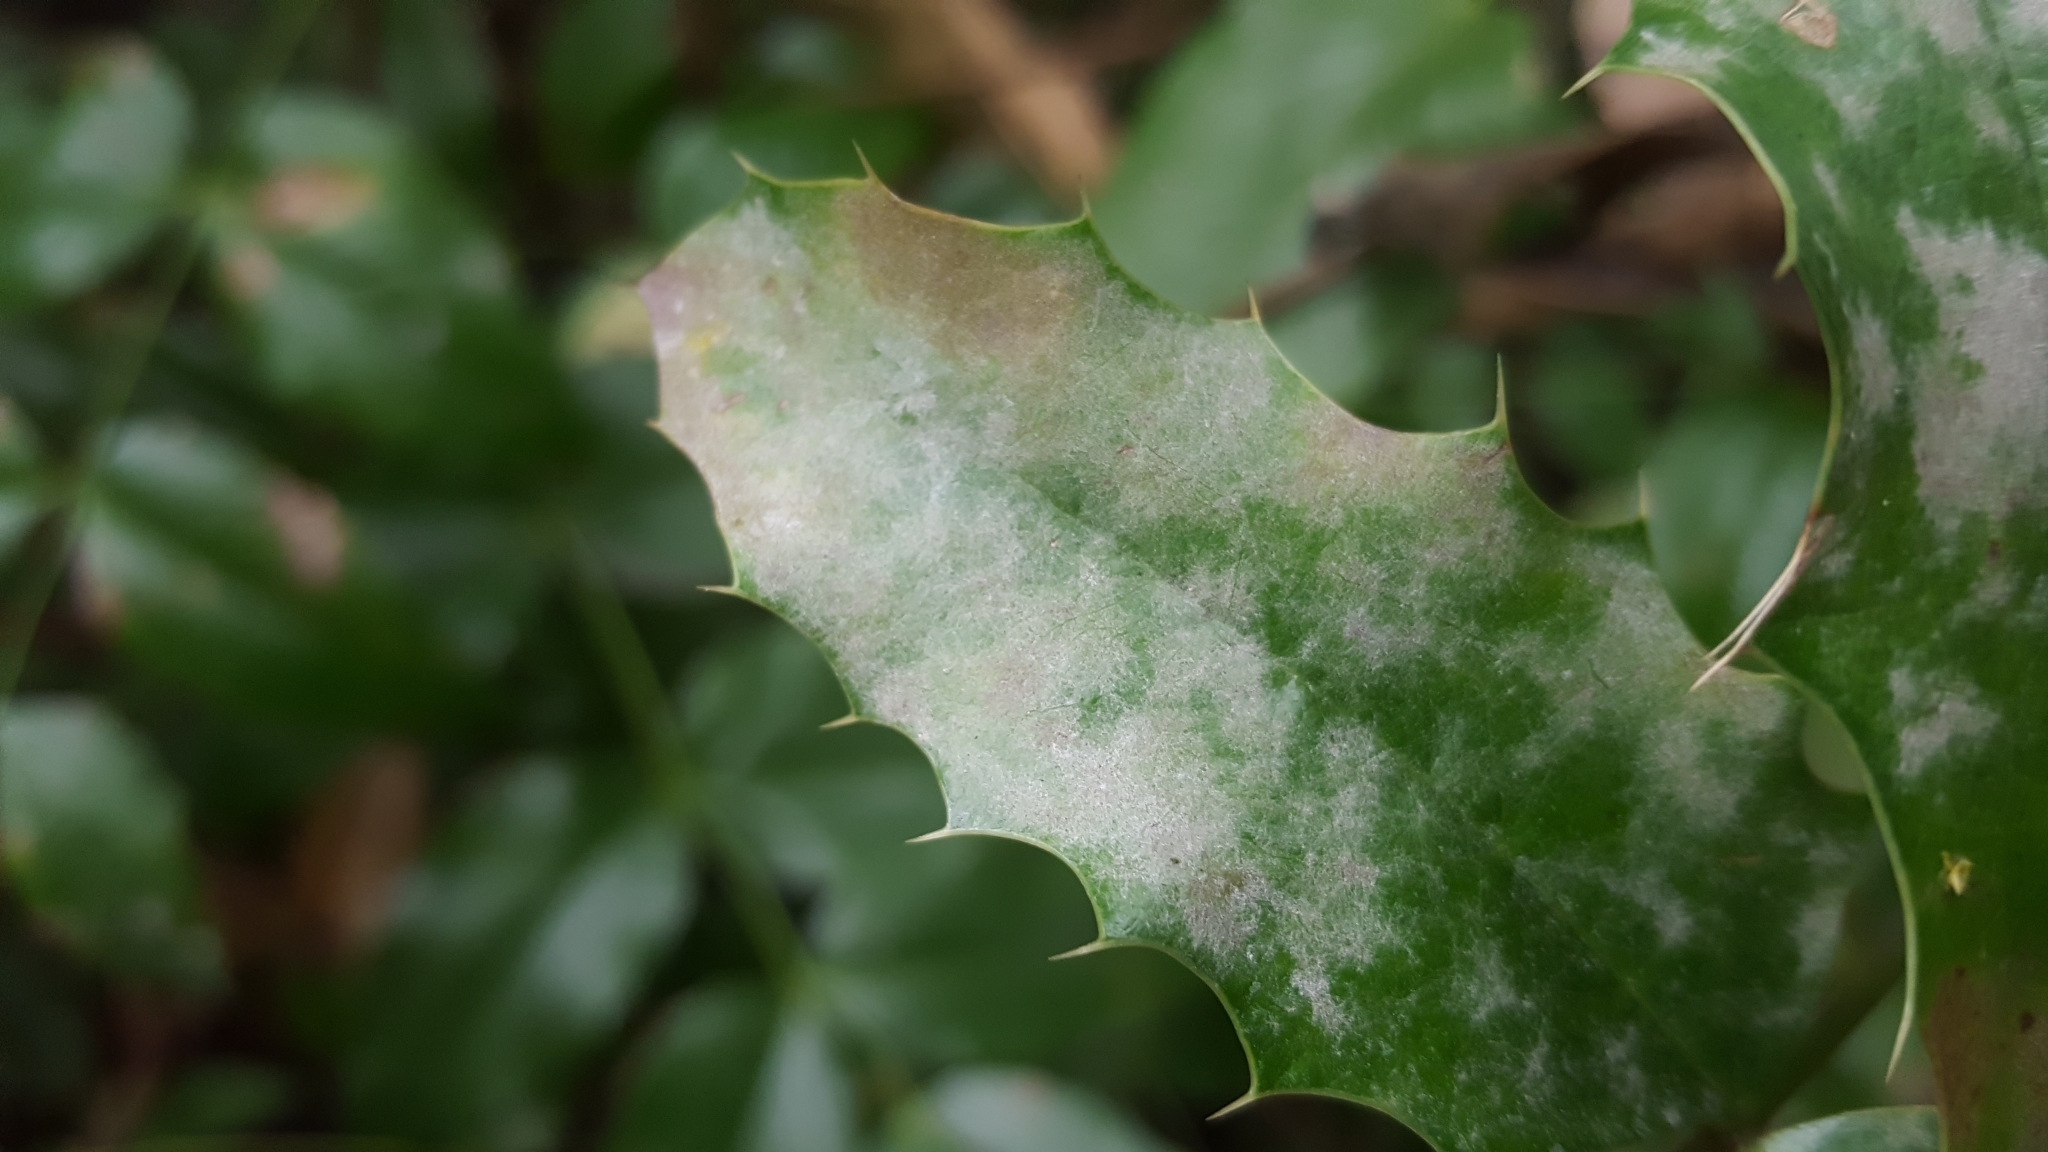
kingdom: Fungi
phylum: Ascomycota
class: Leotiomycetes
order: Helotiales
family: Erysiphaceae
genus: Erysiphe
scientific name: Erysiphe berberidis
